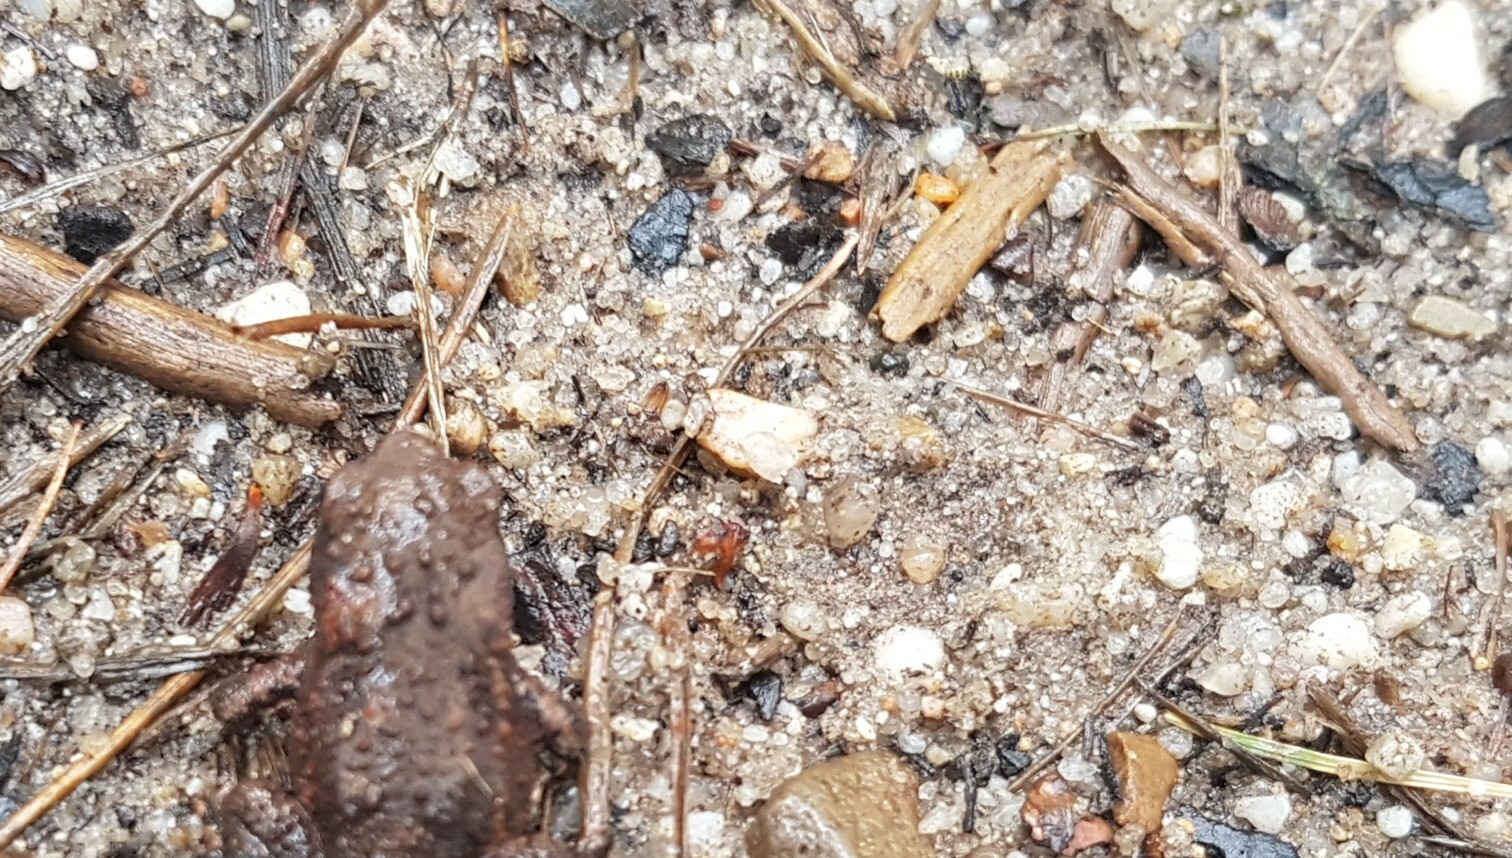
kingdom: Animalia
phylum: Chordata
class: Amphibia
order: Anura
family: Bufonidae
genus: Bufo
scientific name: Bufo bufo
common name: Common toad
